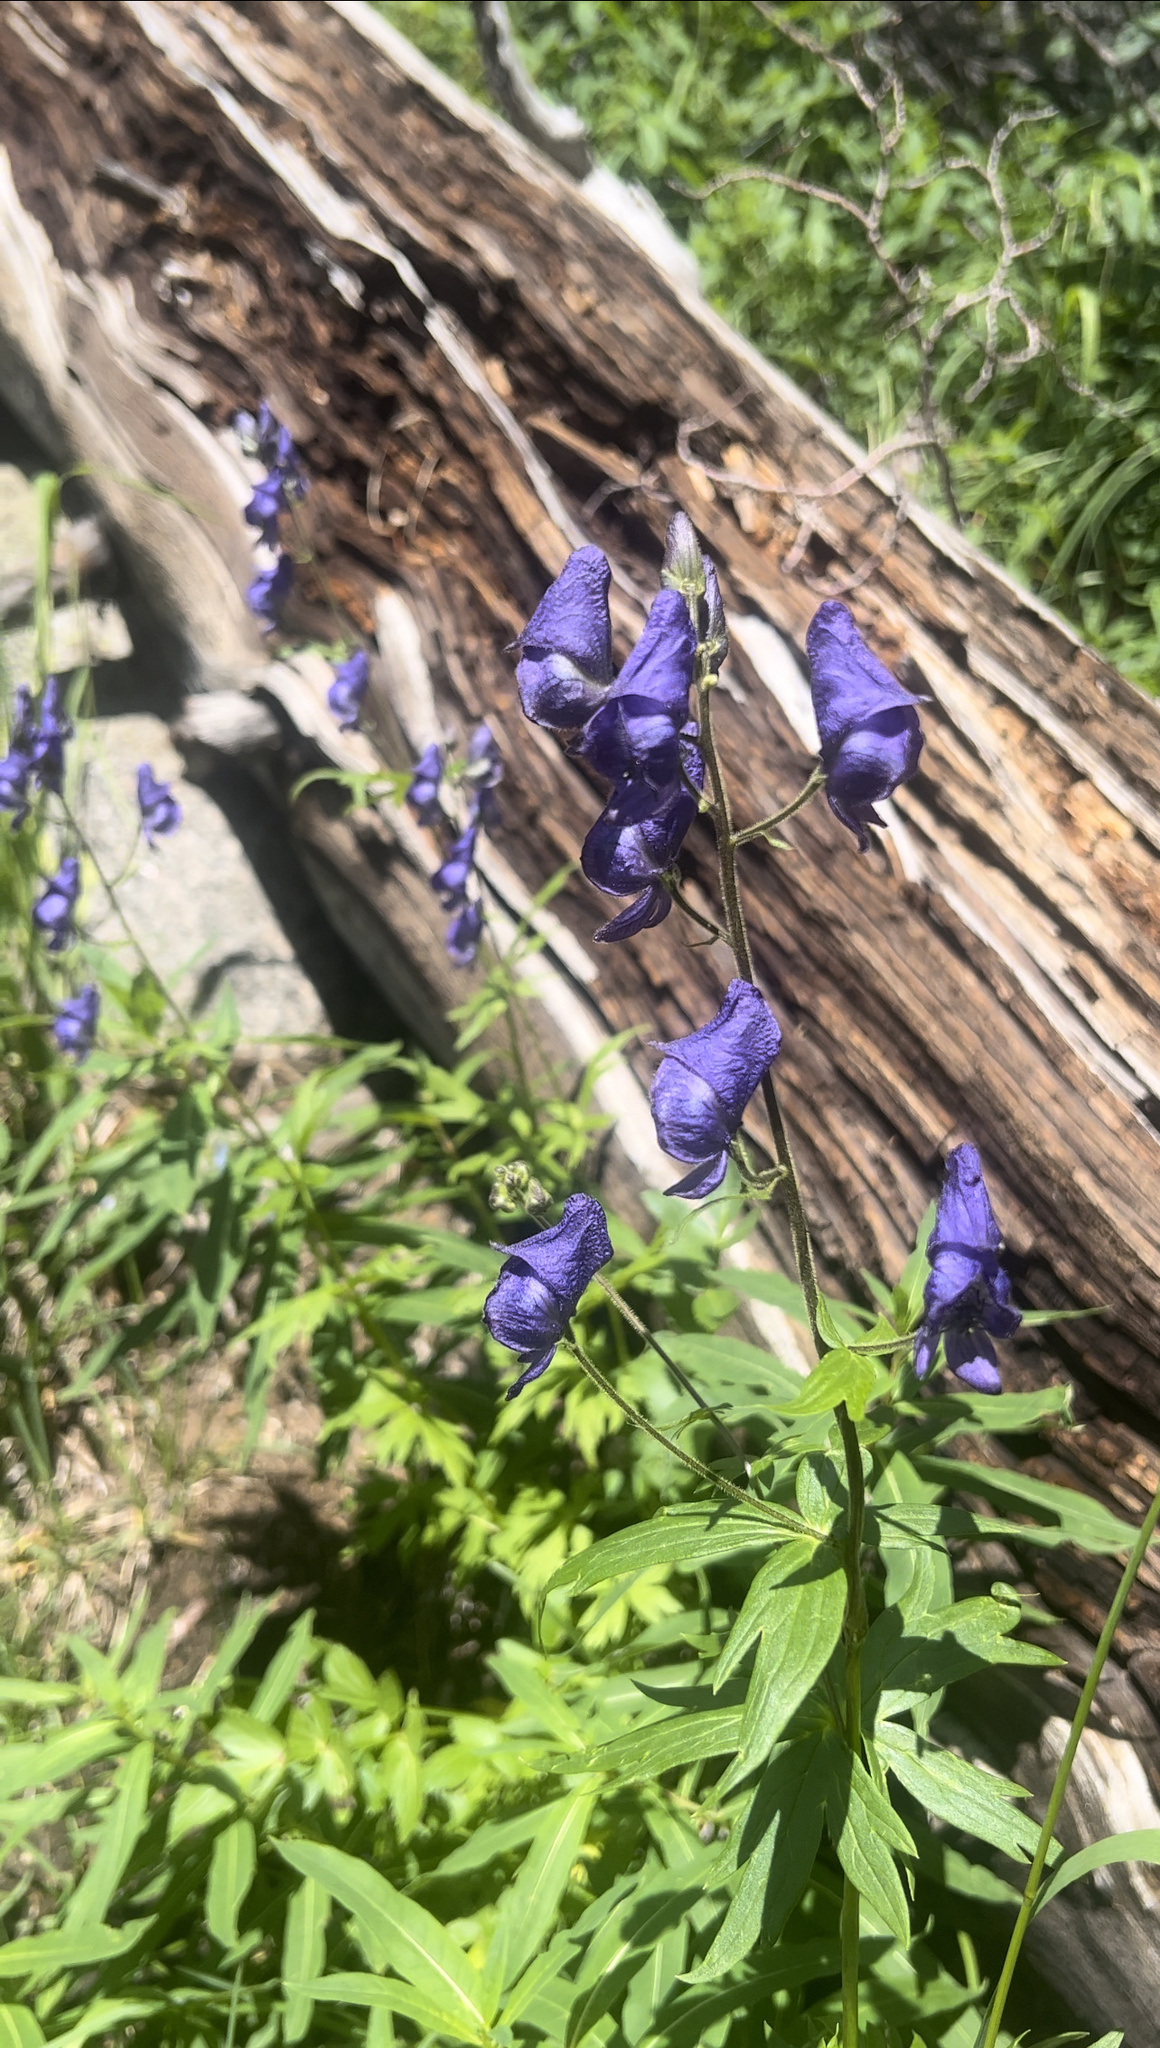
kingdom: Plantae
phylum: Tracheophyta
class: Magnoliopsida
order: Ranunculales
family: Ranunculaceae
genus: Aconitum
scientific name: Aconitum columbianum
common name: Columbia aconite
